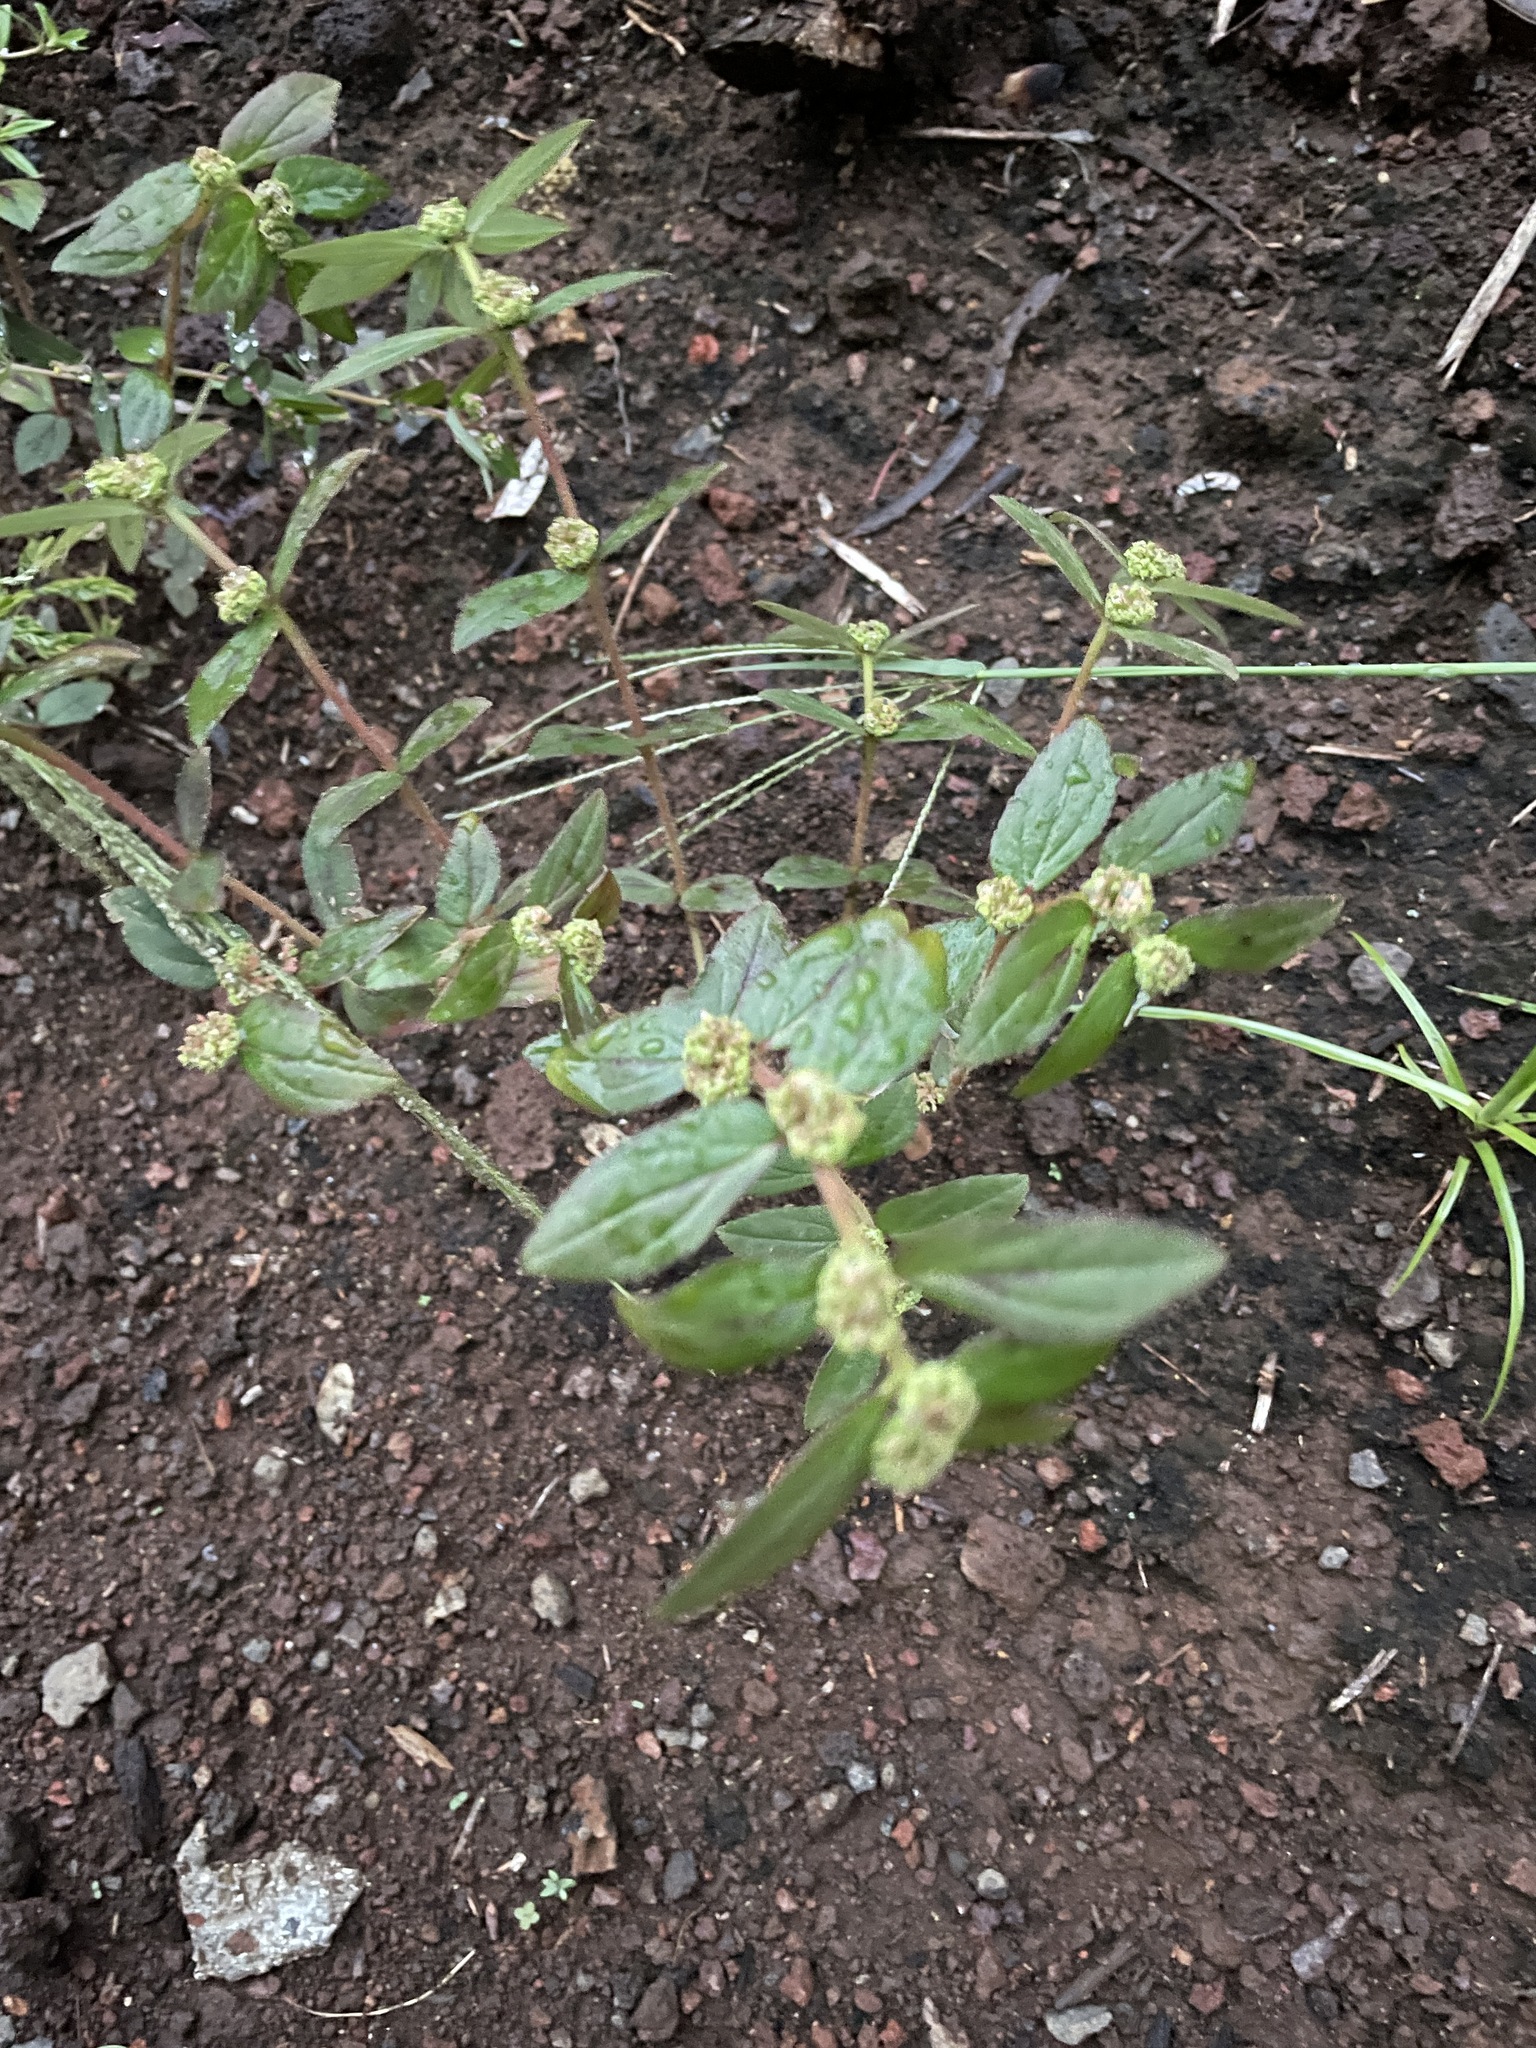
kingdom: Plantae
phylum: Tracheophyta
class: Magnoliopsida
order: Malpighiales
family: Euphorbiaceae
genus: Euphorbia
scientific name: Euphorbia hirta
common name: Pillpod sandmat
